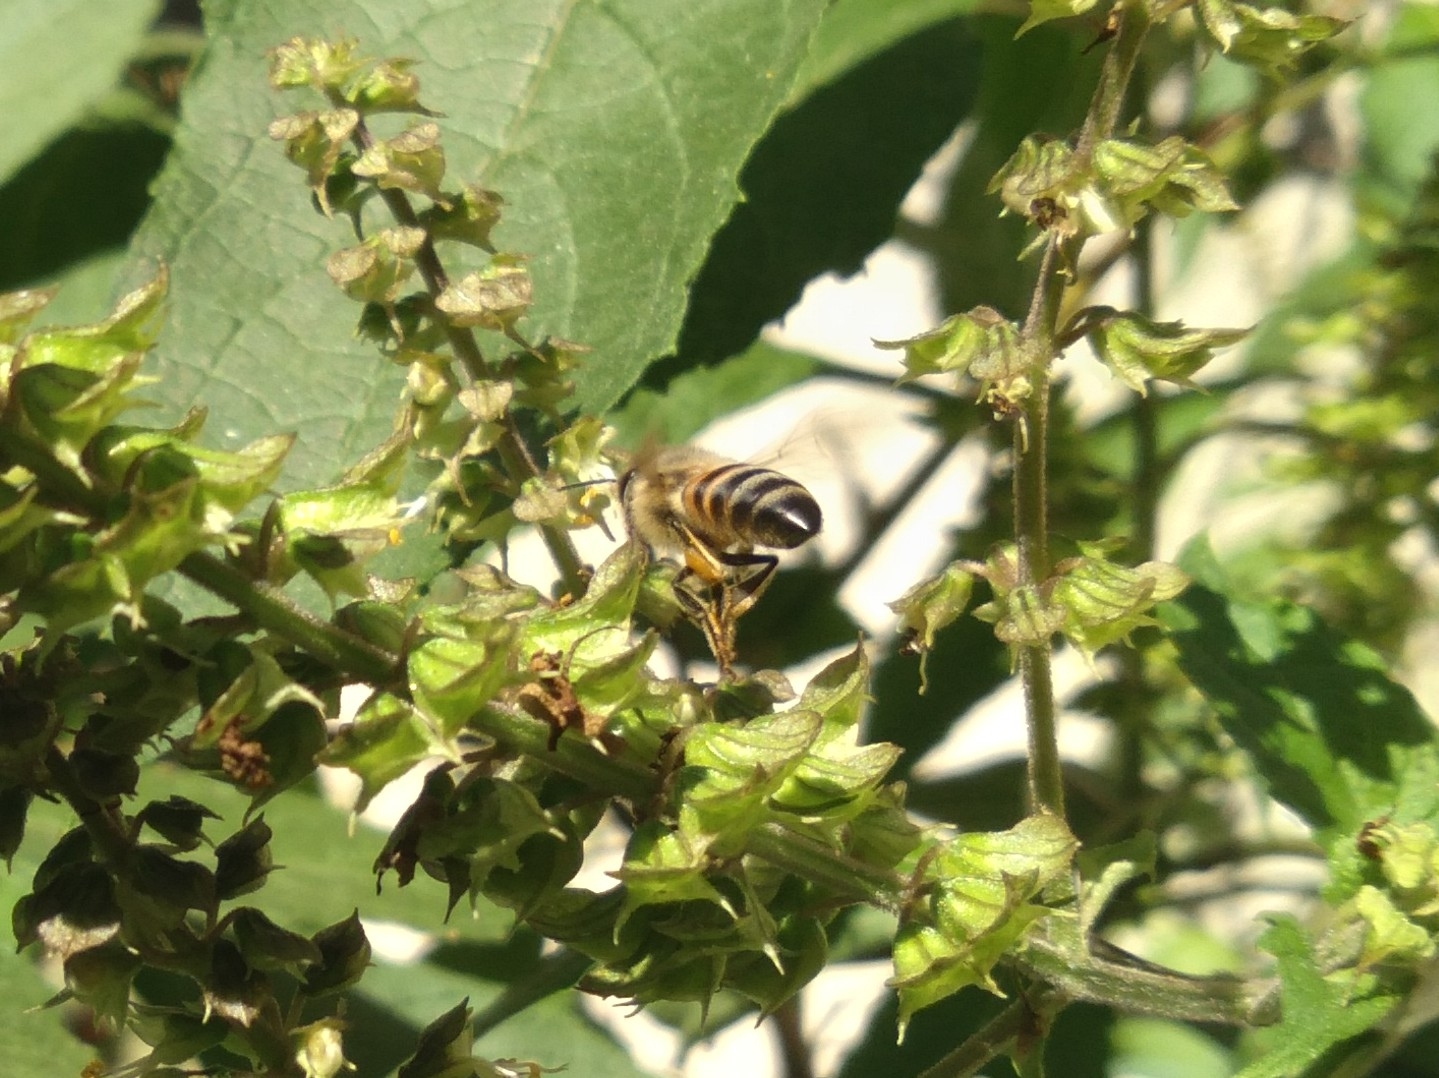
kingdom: Animalia
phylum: Arthropoda
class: Insecta
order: Hymenoptera
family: Apidae
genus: Apis
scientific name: Apis mellifera
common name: Honey bee
